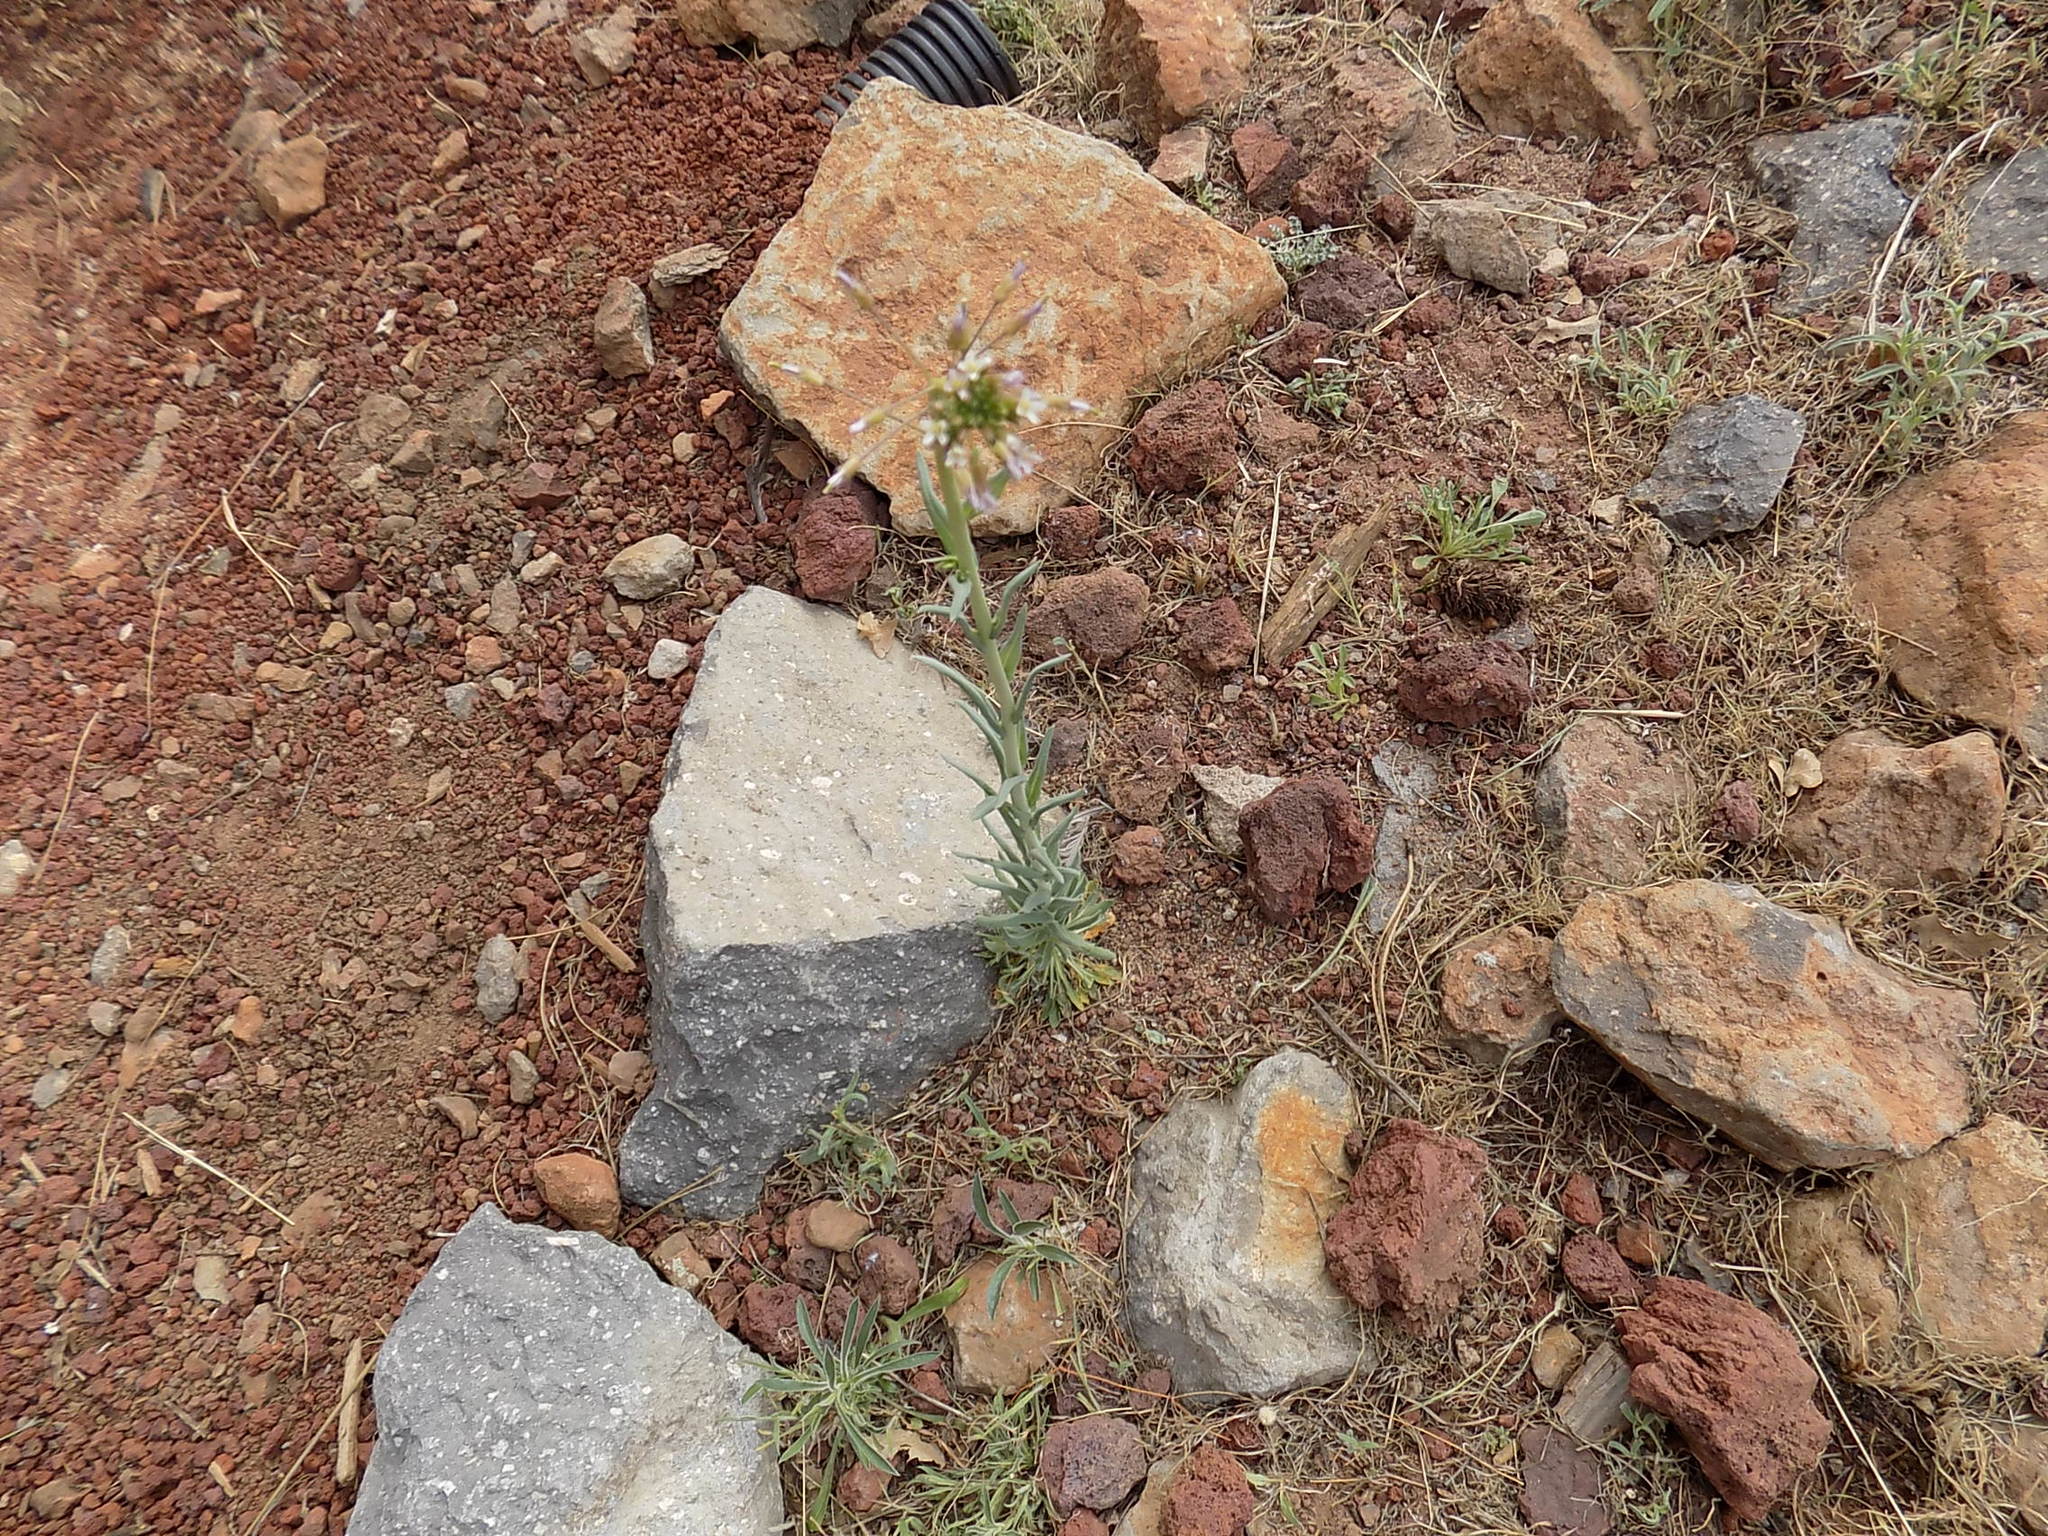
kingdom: Plantae
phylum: Tracheophyta
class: Magnoliopsida
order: Brassicales
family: Brassicaceae
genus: Boechera
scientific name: Boechera perennans
